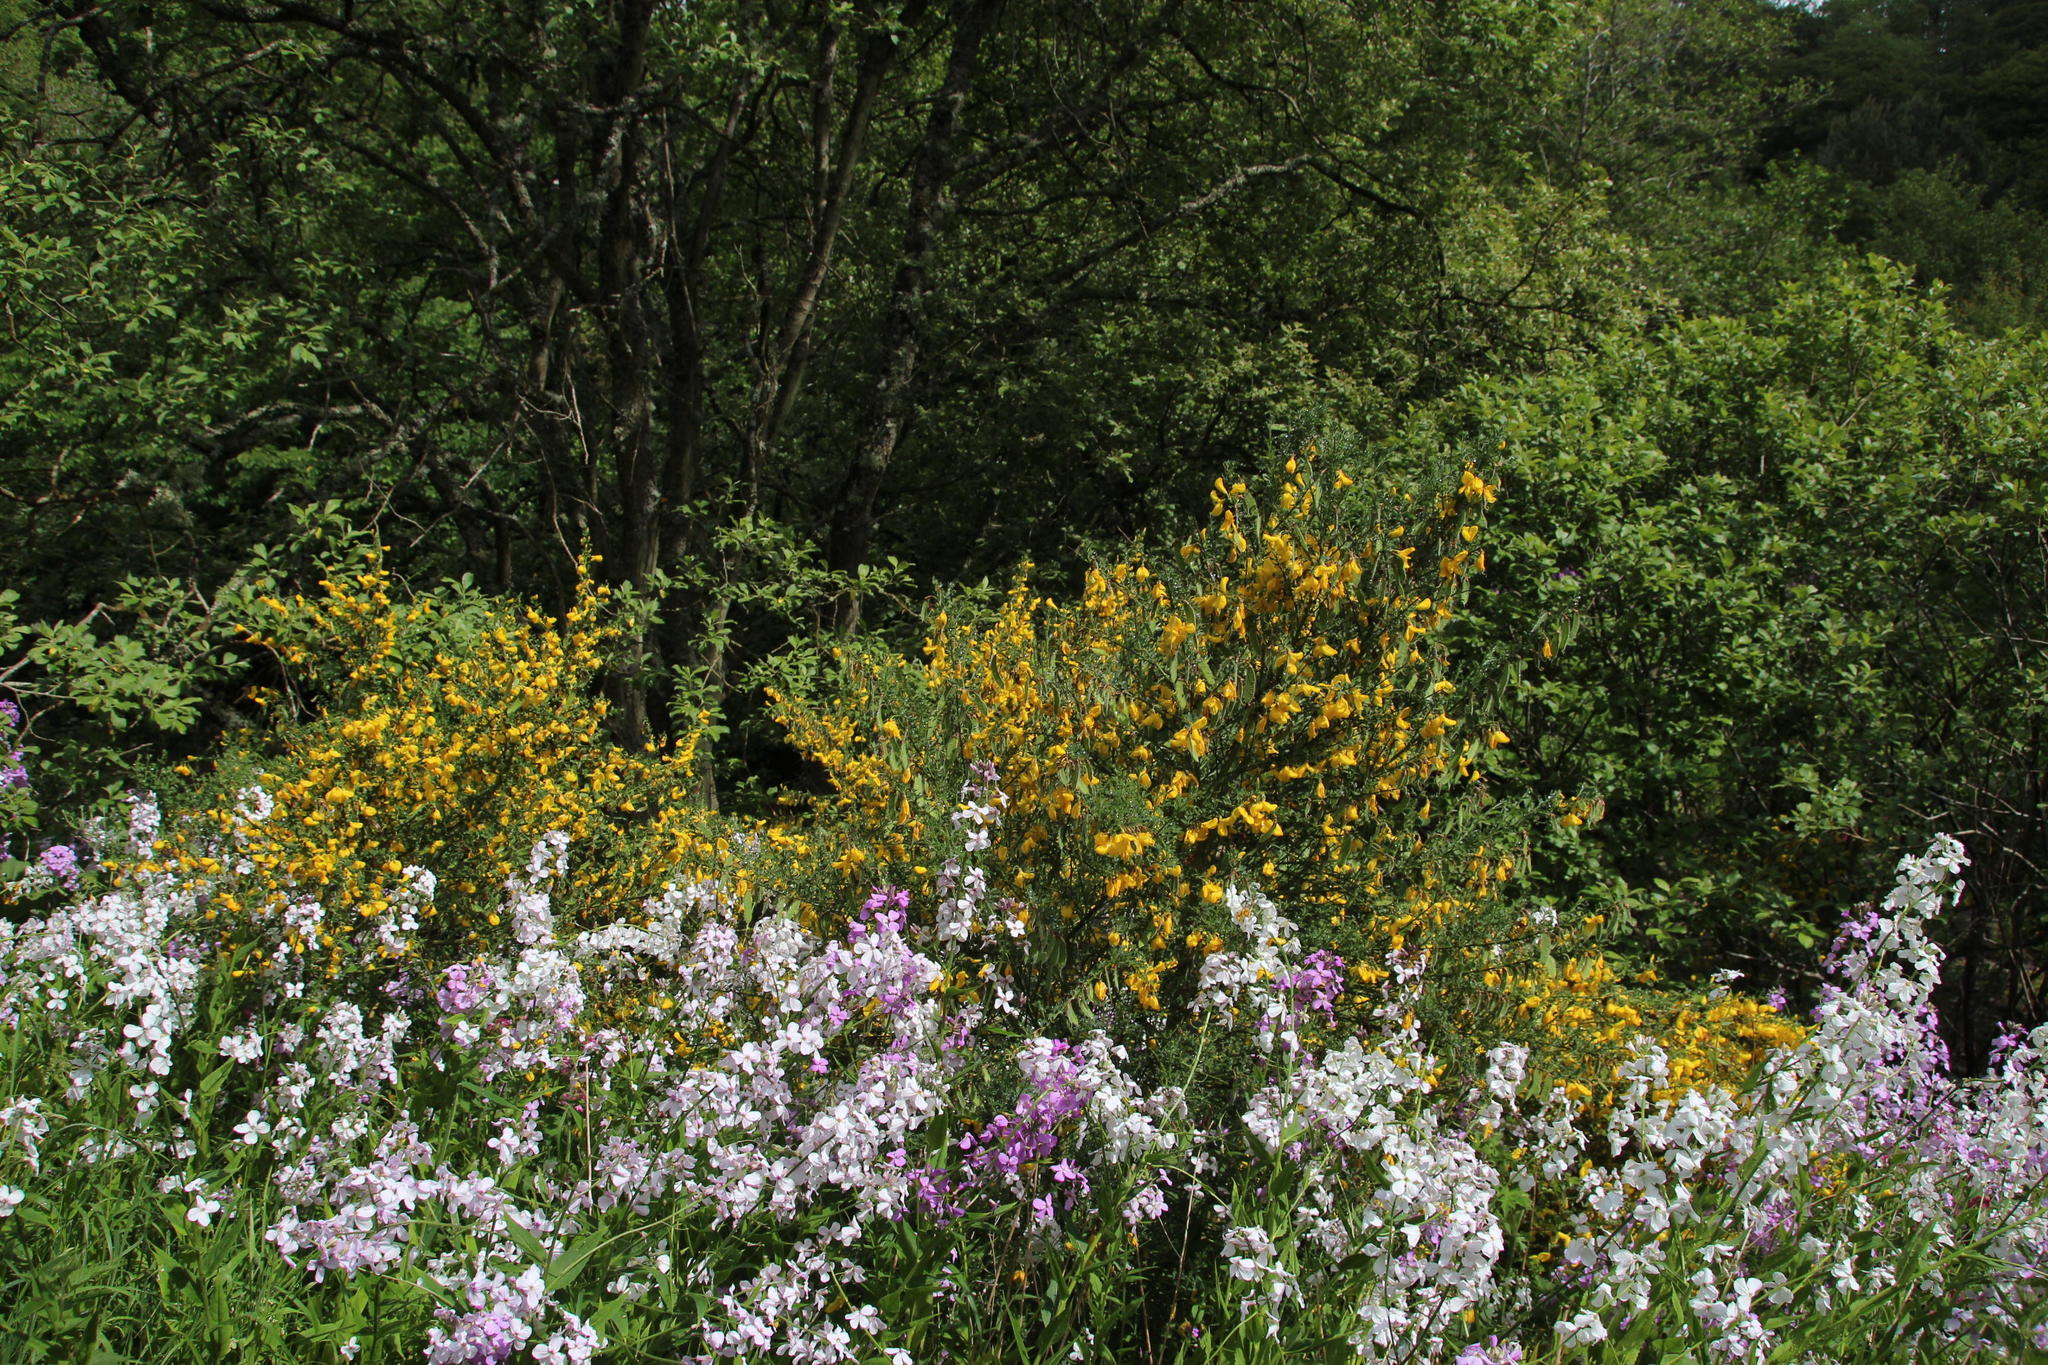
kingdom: Plantae
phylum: Tracheophyta
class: Magnoliopsida
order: Fabales
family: Fabaceae
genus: Cytisus
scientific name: Cytisus scoparius
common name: Scotch broom
